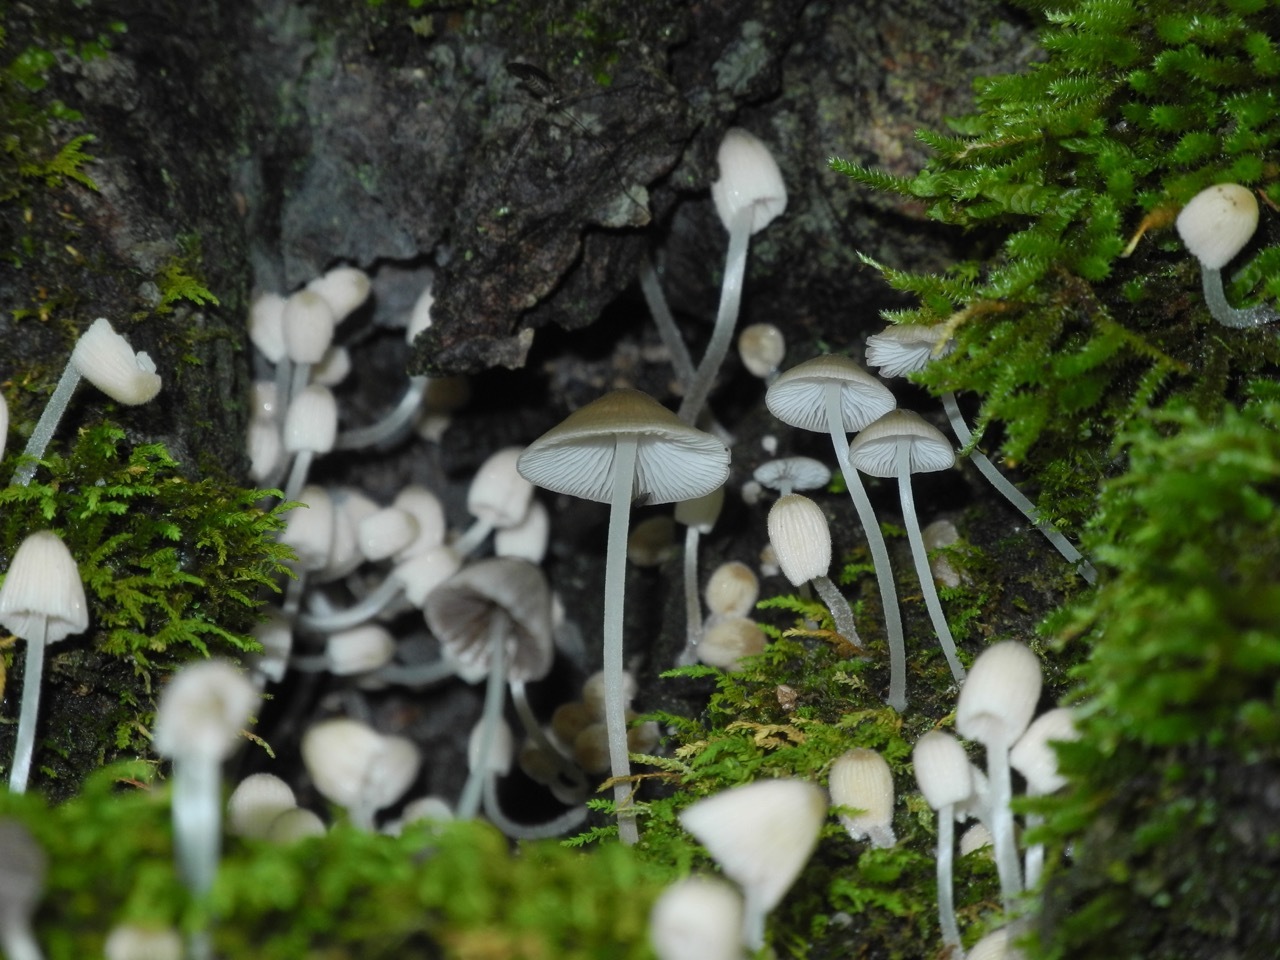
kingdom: Fungi
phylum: Basidiomycota
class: Agaricomycetes
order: Agaricales
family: Mycenaceae
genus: Mycena
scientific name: Mycena galericulata
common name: Bonnet mycena
